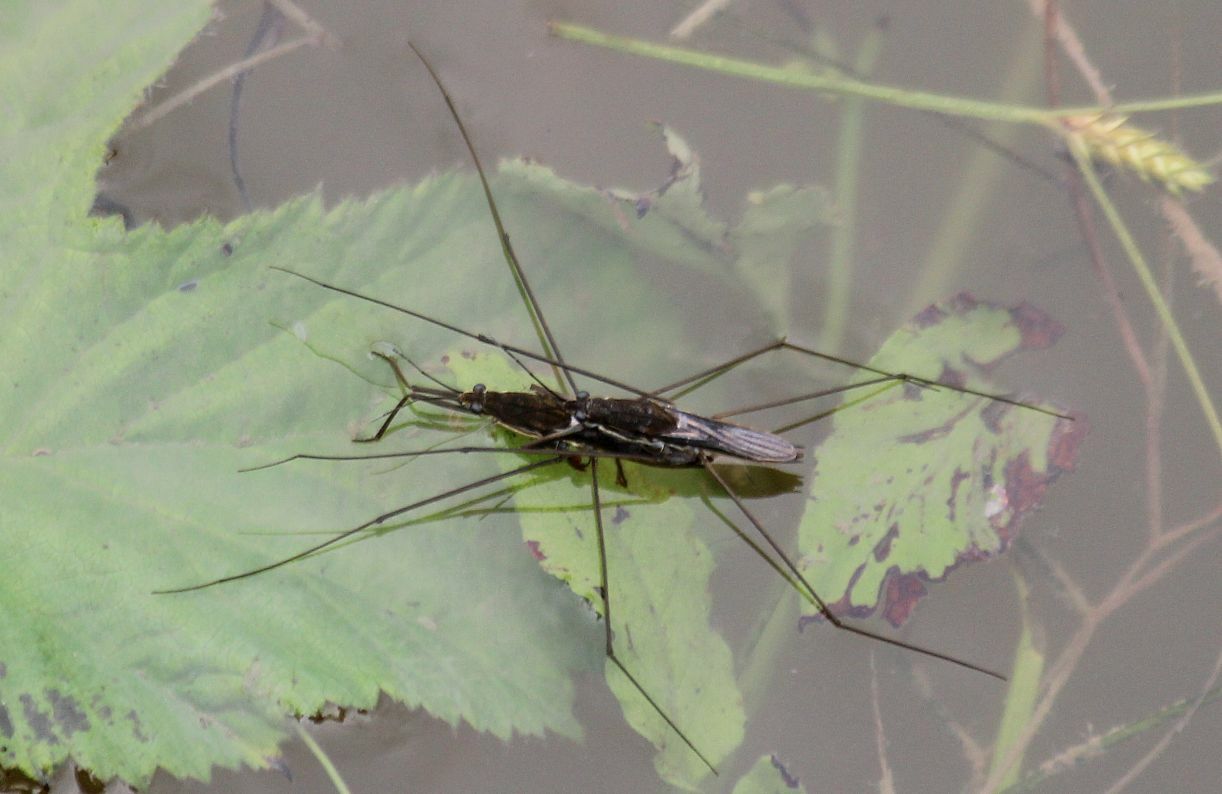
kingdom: Animalia
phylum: Arthropoda
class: Insecta
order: Hemiptera
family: Gerridae
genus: Aquarius
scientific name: Aquarius paludum
